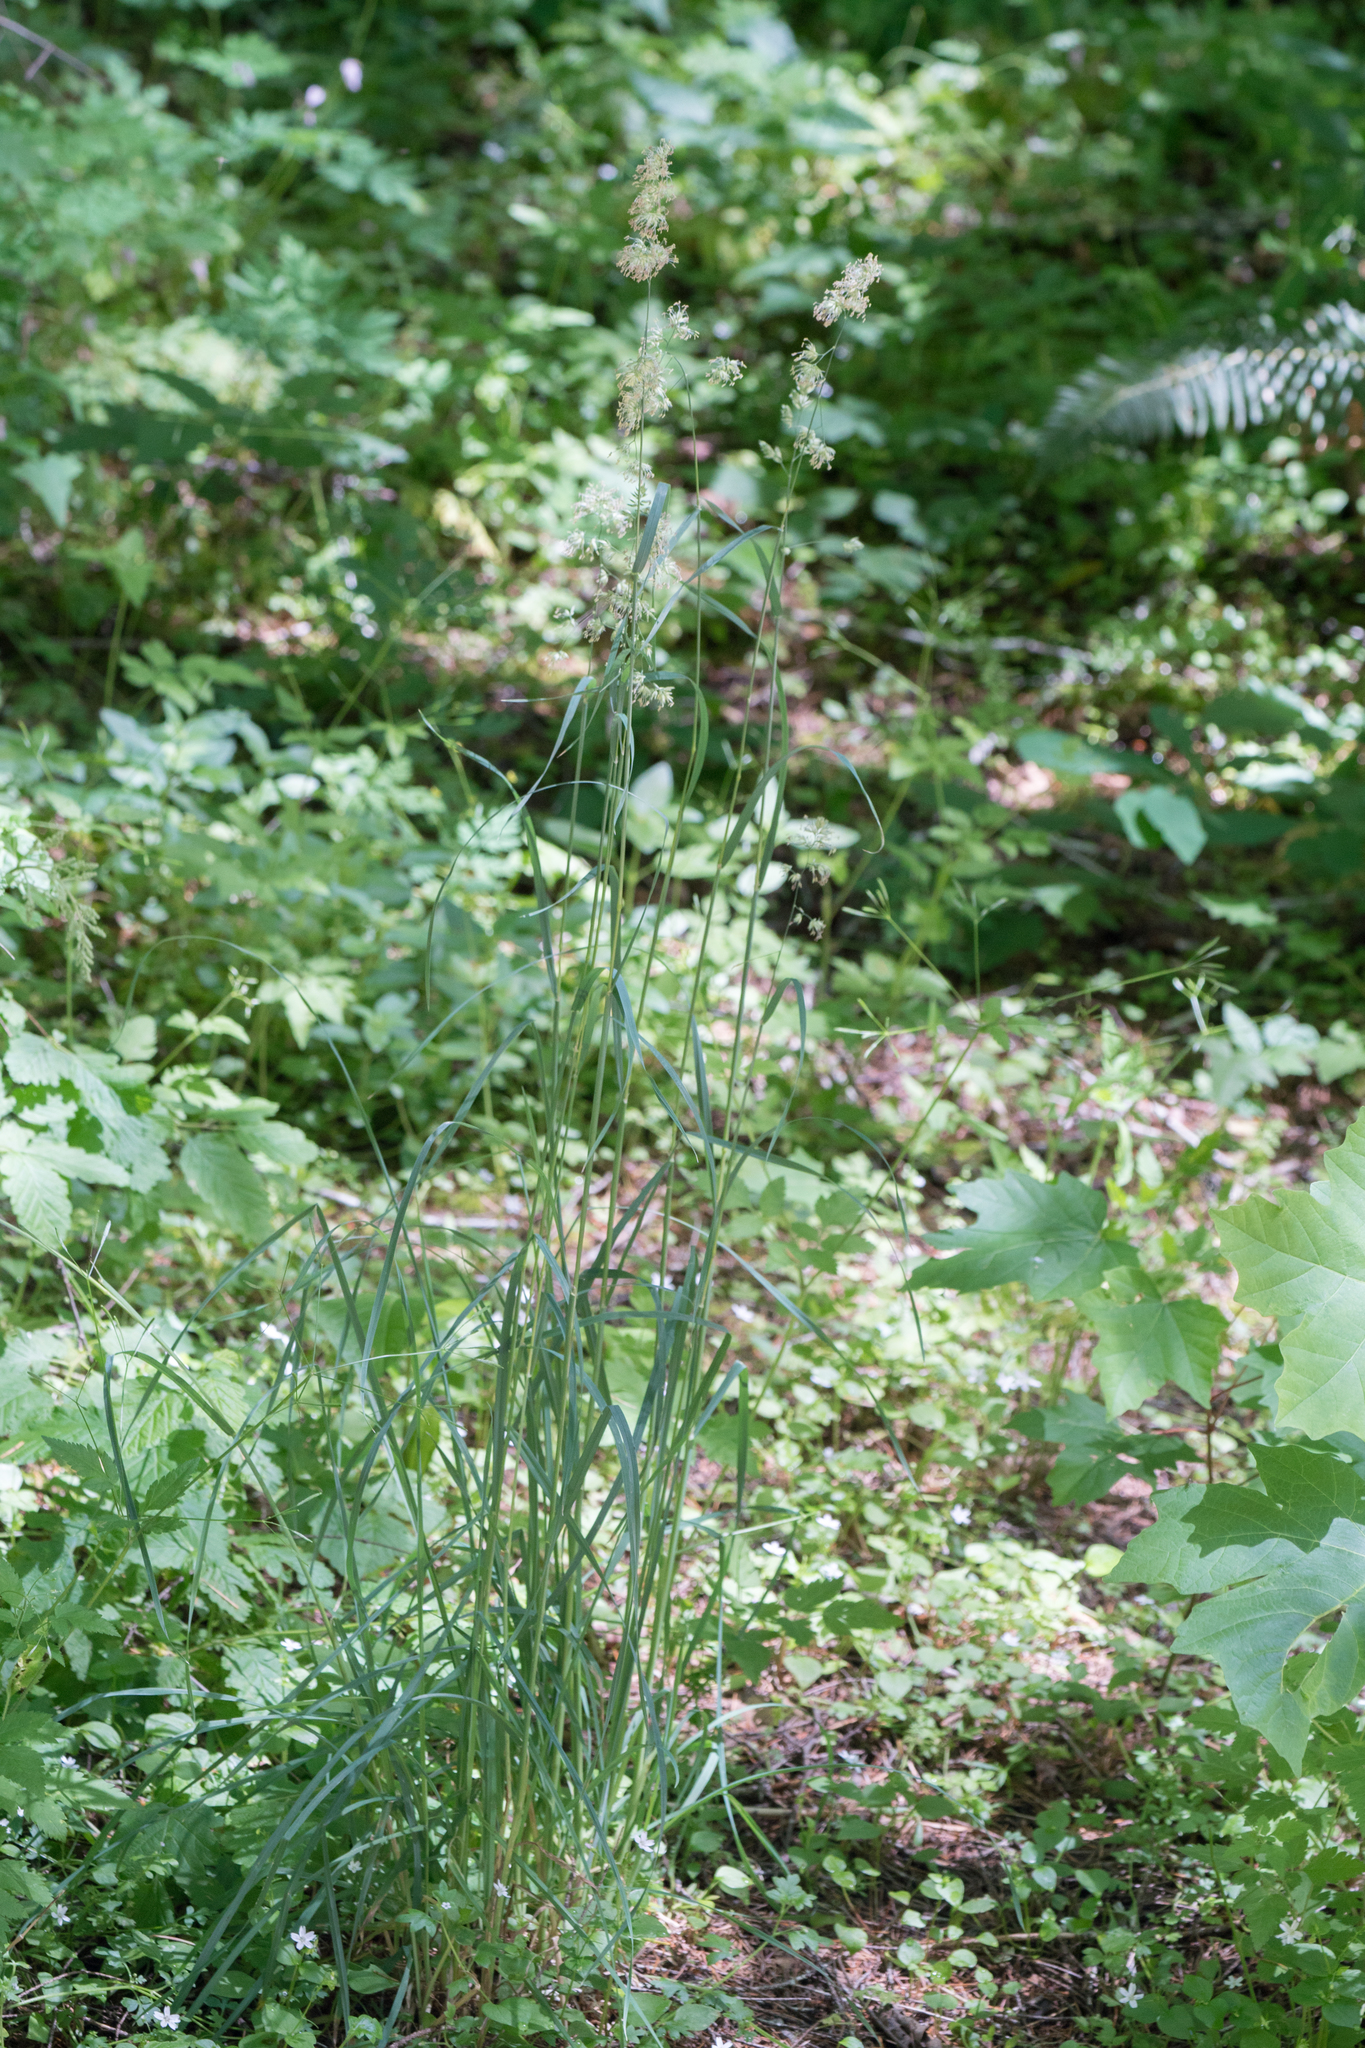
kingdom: Plantae
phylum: Tracheophyta
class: Liliopsida
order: Poales
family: Poaceae
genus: Dactylis
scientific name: Dactylis glomerata
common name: Orchardgrass
